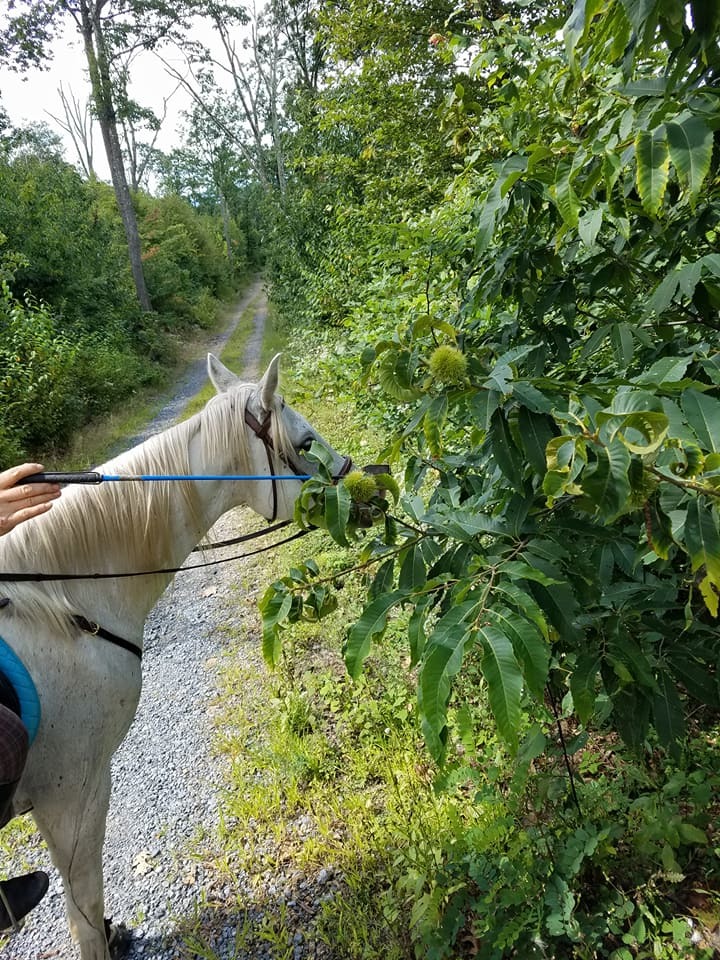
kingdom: Plantae
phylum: Tracheophyta
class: Magnoliopsida
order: Fagales
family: Fagaceae
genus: Castanea
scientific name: Castanea dentata
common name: American chestnut
